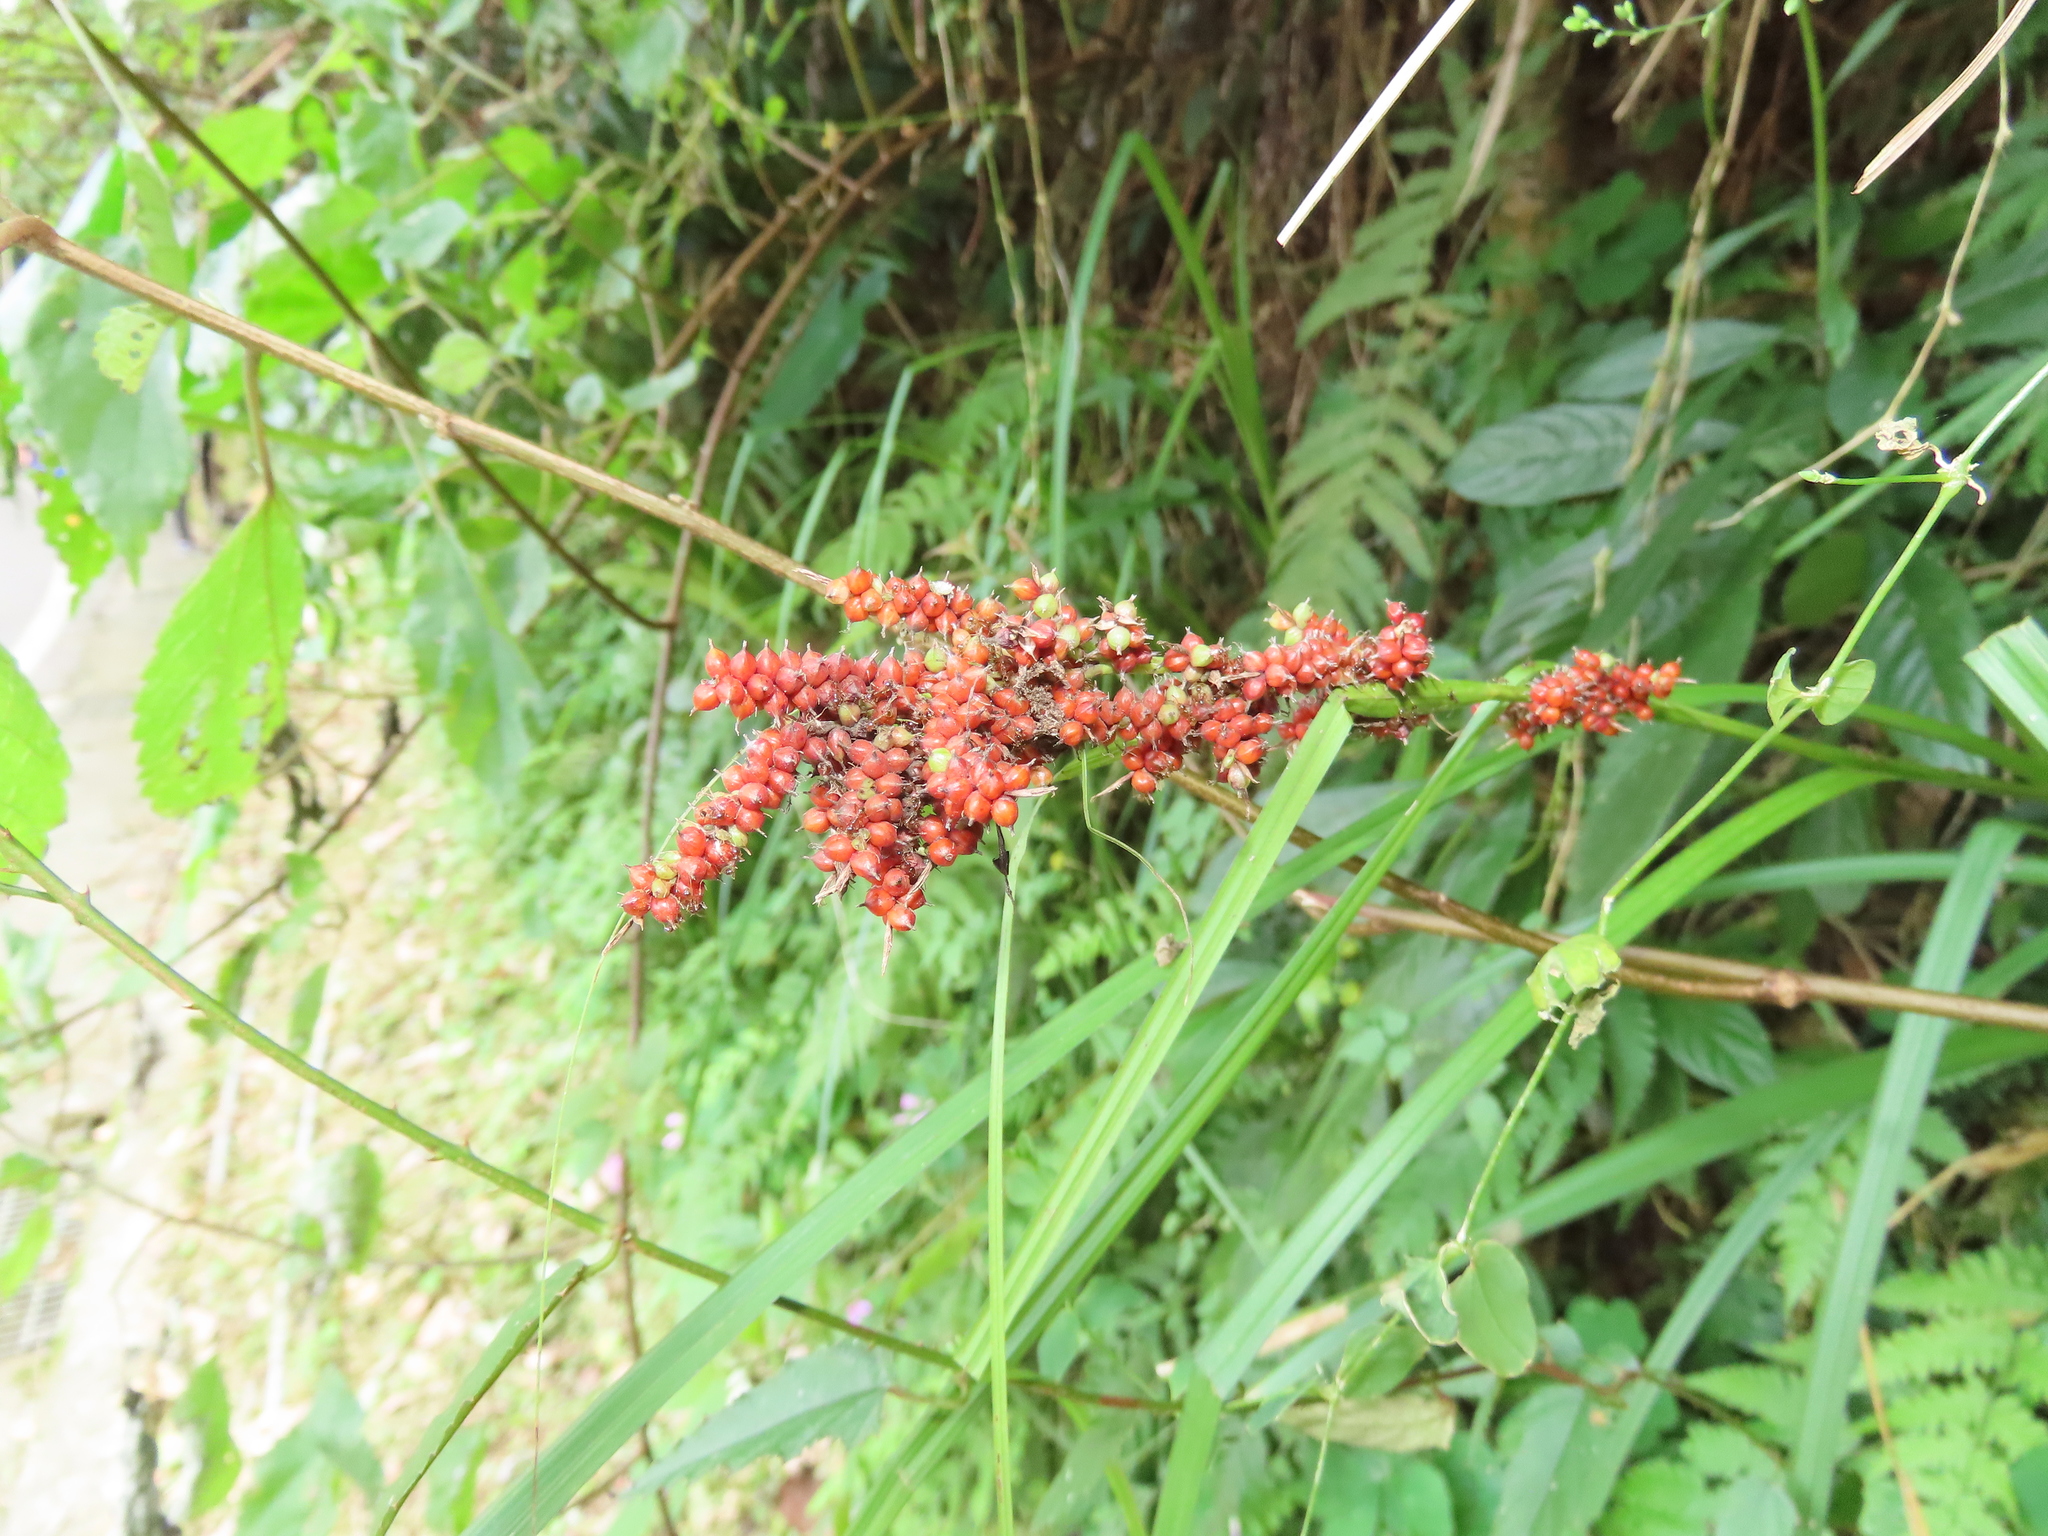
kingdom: Plantae
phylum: Tracheophyta
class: Liliopsida
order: Poales
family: Cyperaceae
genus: Carex
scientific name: Carex baccans
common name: Crimson seeded sedge
